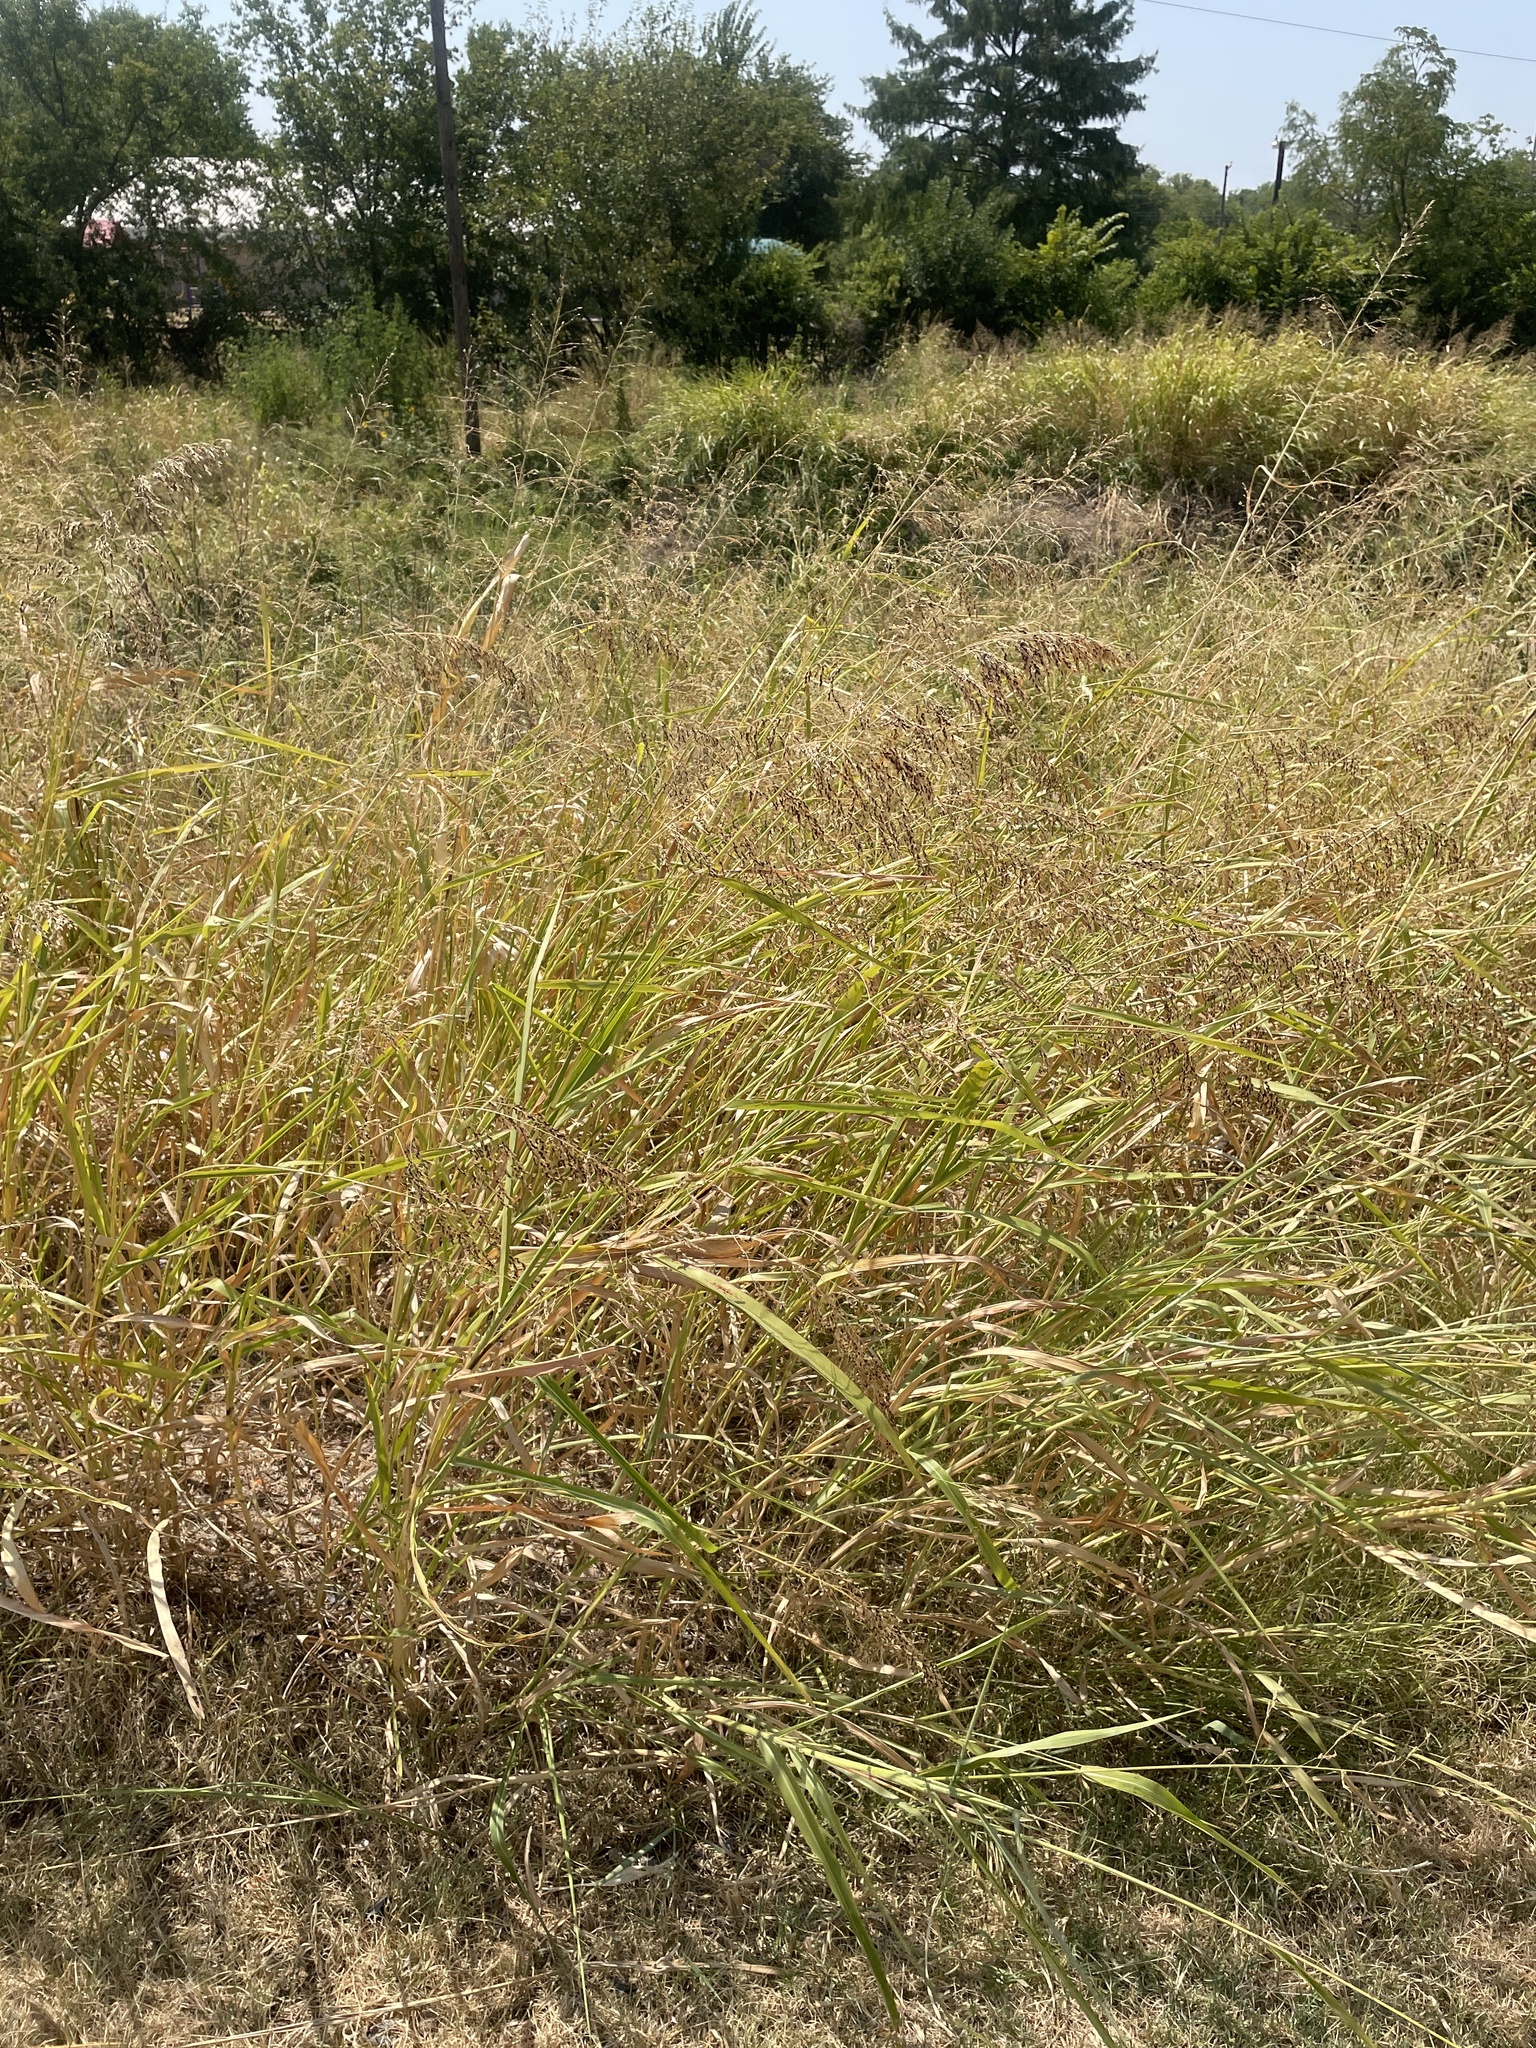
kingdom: Plantae
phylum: Tracheophyta
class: Liliopsida
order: Poales
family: Poaceae
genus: Sorghum
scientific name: Sorghum halepense
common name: Johnson-grass
